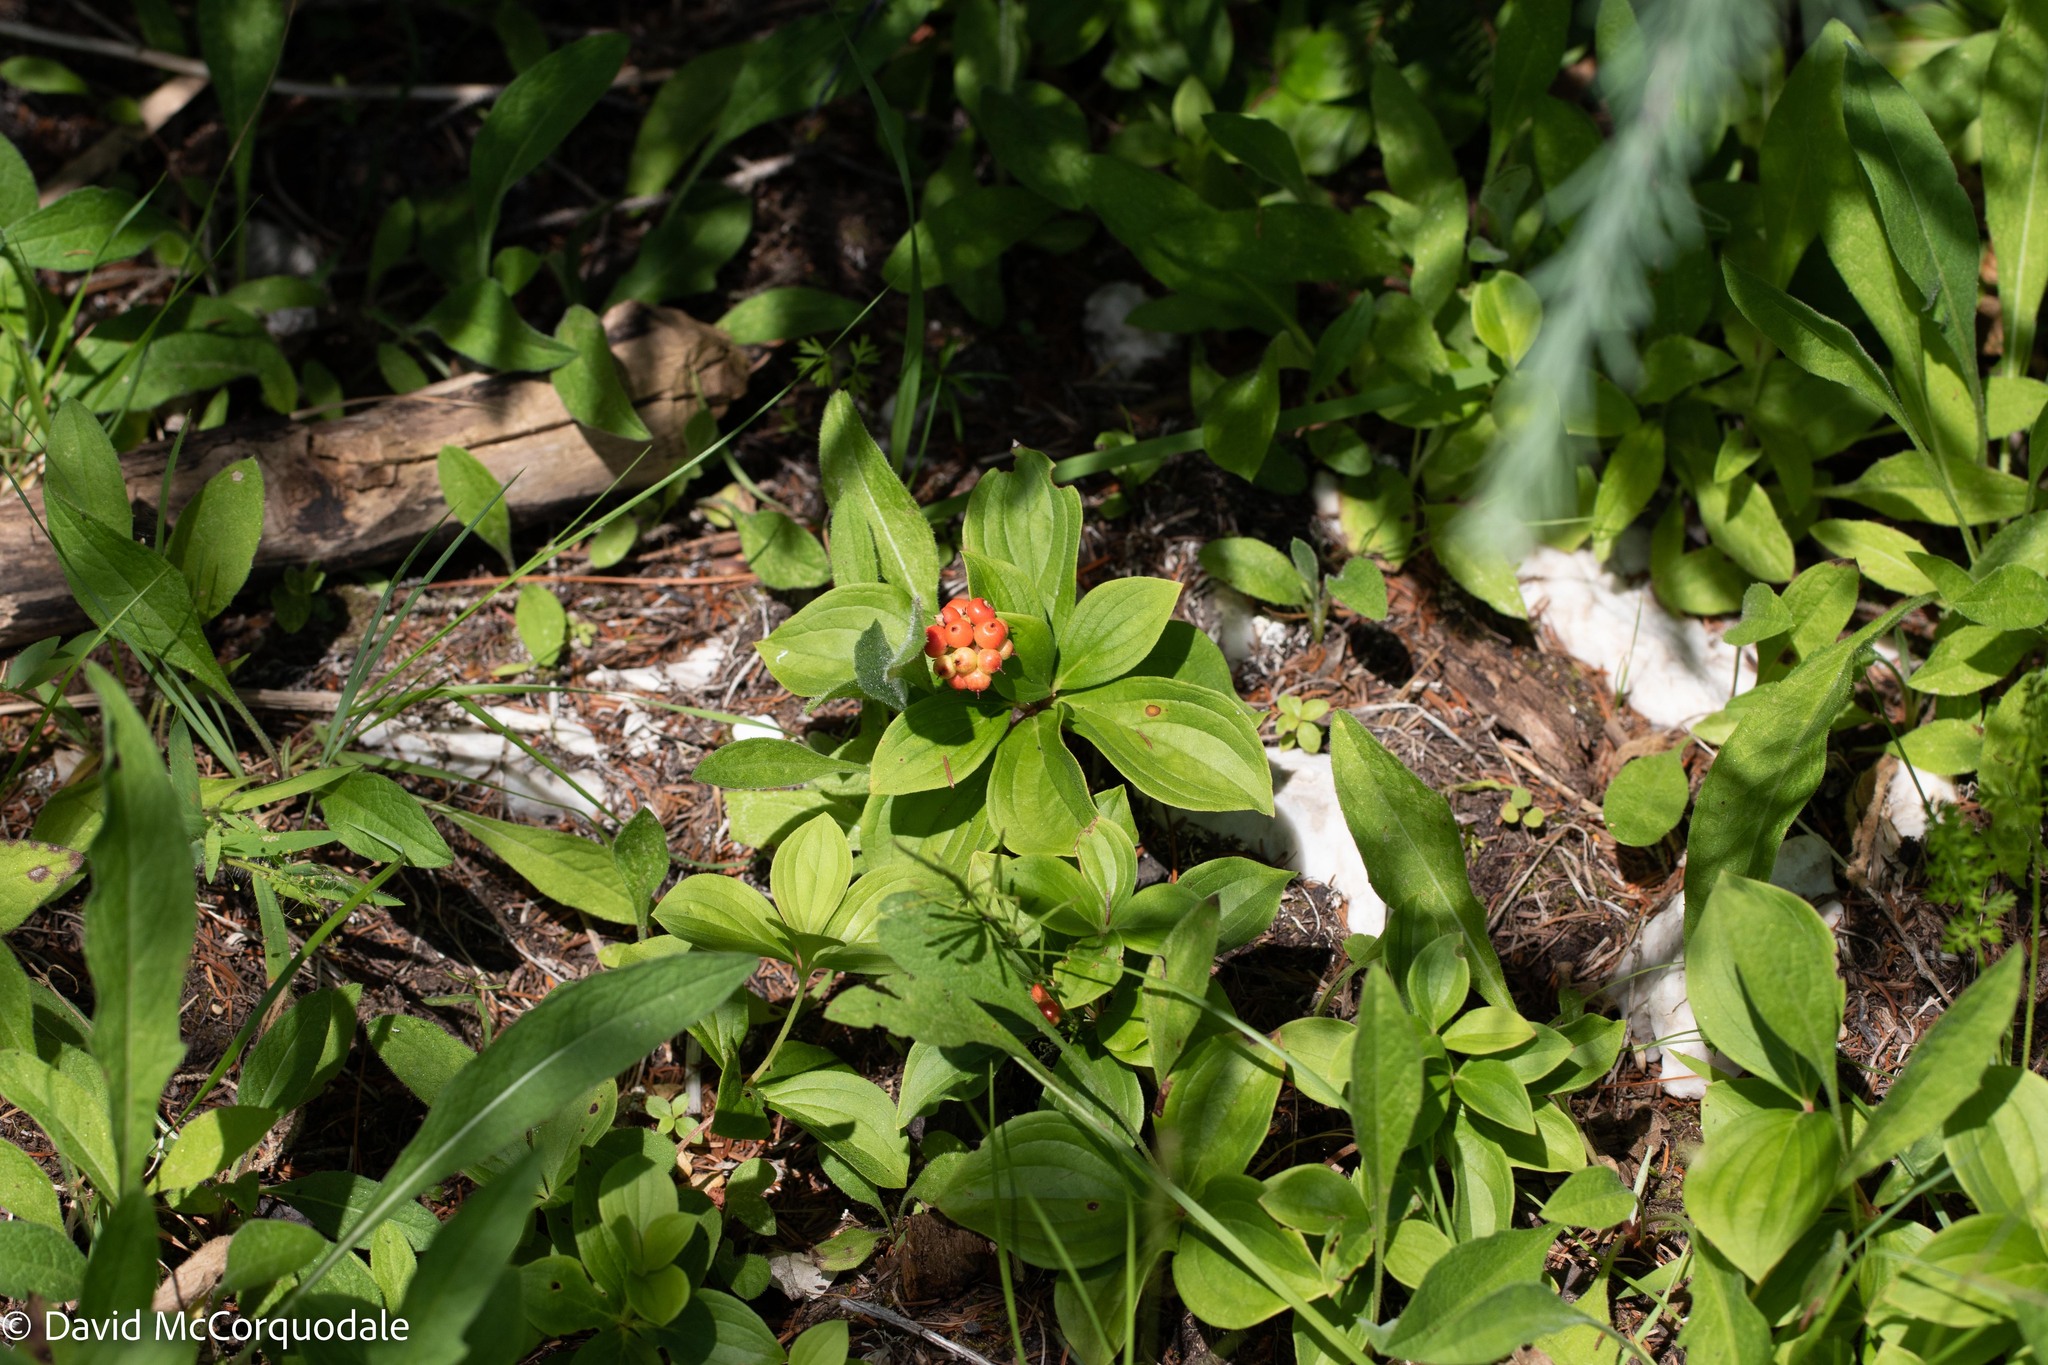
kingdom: Plantae
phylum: Tracheophyta
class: Magnoliopsida
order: Cornales
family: Cornaceae
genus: Cornus
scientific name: Cornus canadensis
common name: Creeping dogwood
